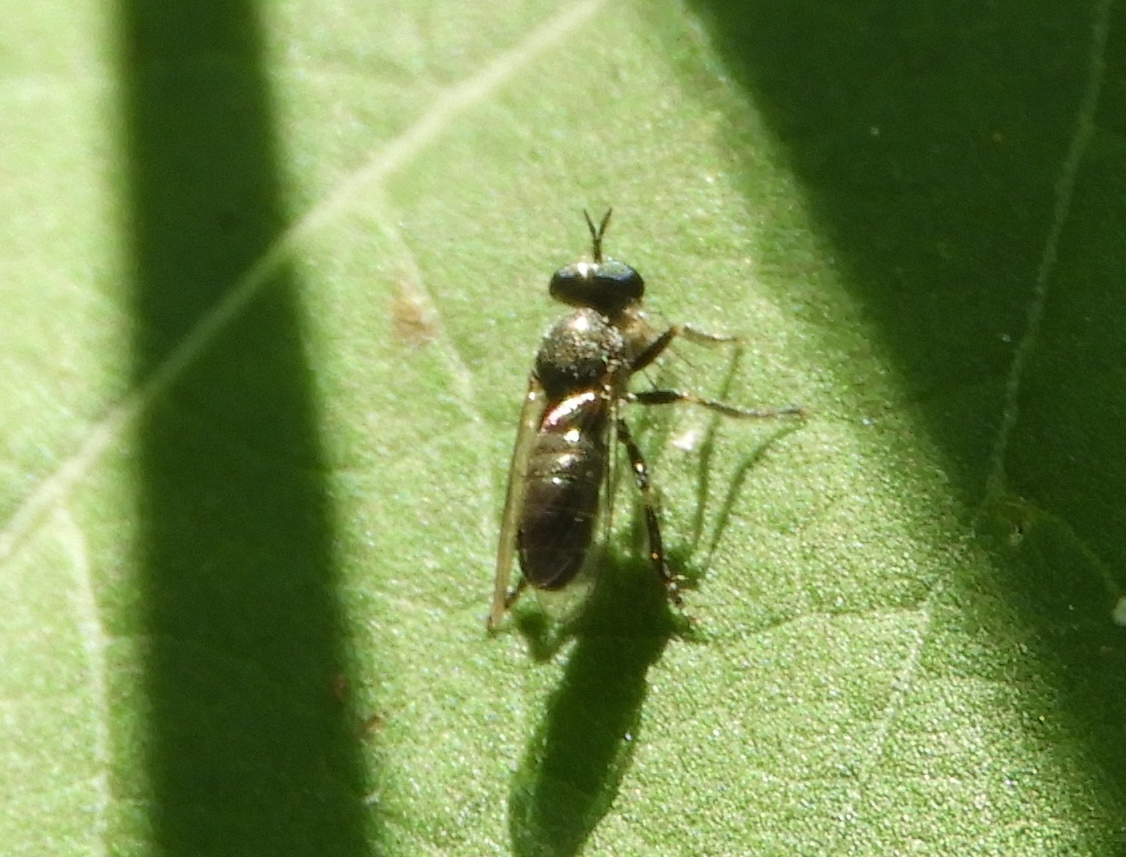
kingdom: Animalia
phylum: Arthropoda
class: Insecta
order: Diptera
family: Asilidae
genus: Atomosia
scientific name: Atomosia
